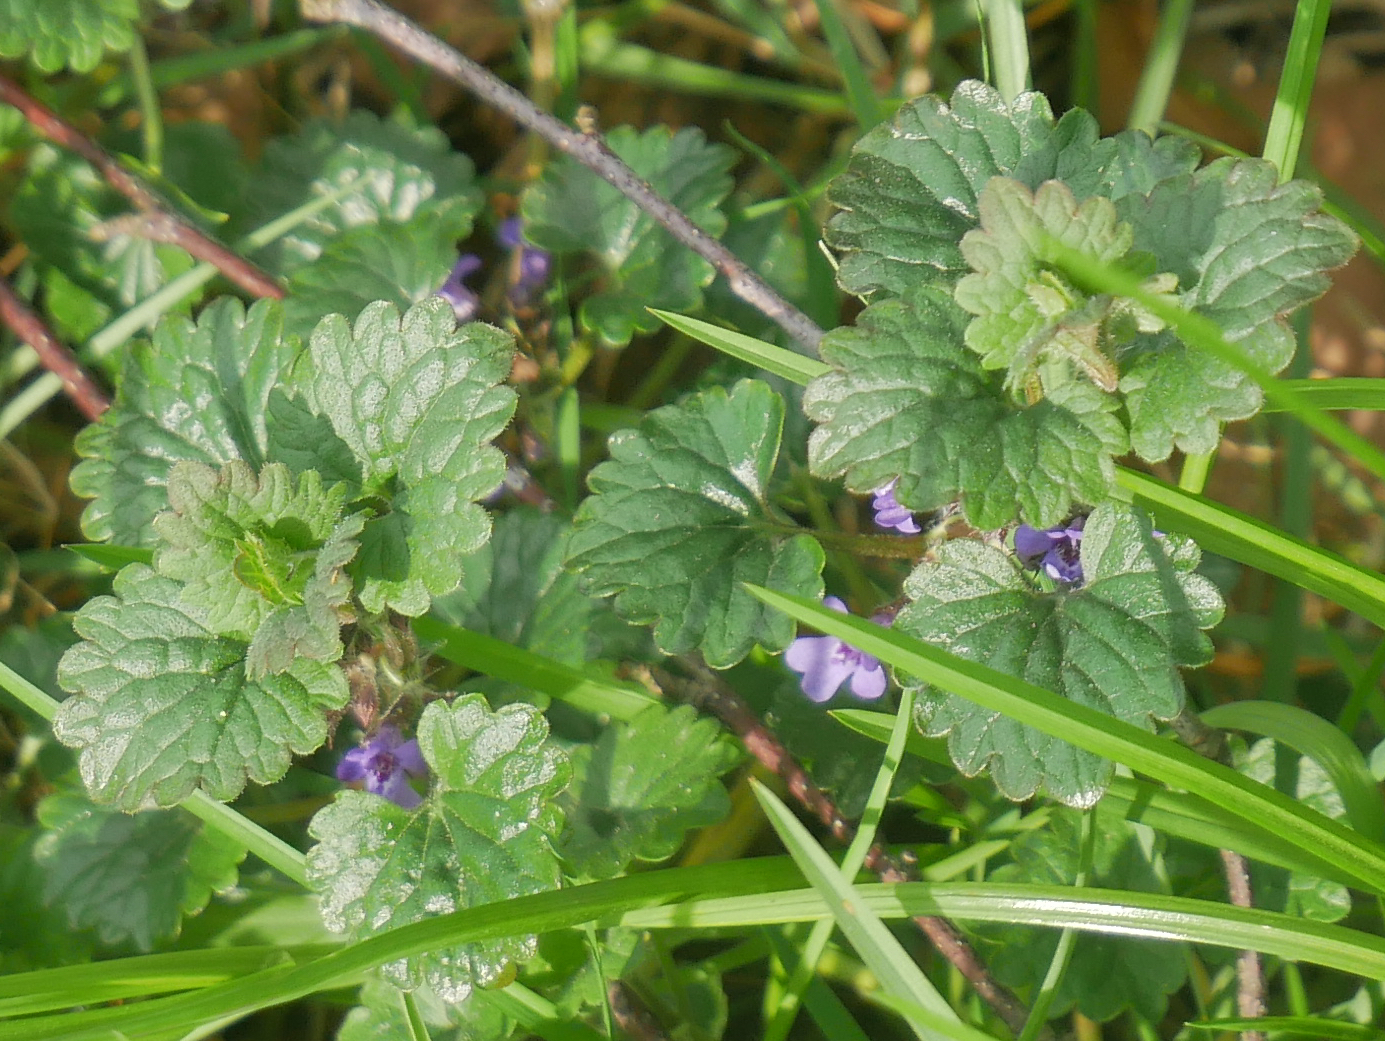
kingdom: Plantae
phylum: Tracheophyta
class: Magnoliopsida
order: Lamiales
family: Lamiaceae
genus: Glechoma
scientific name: Glechoma hederacea
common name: Ground ivy
